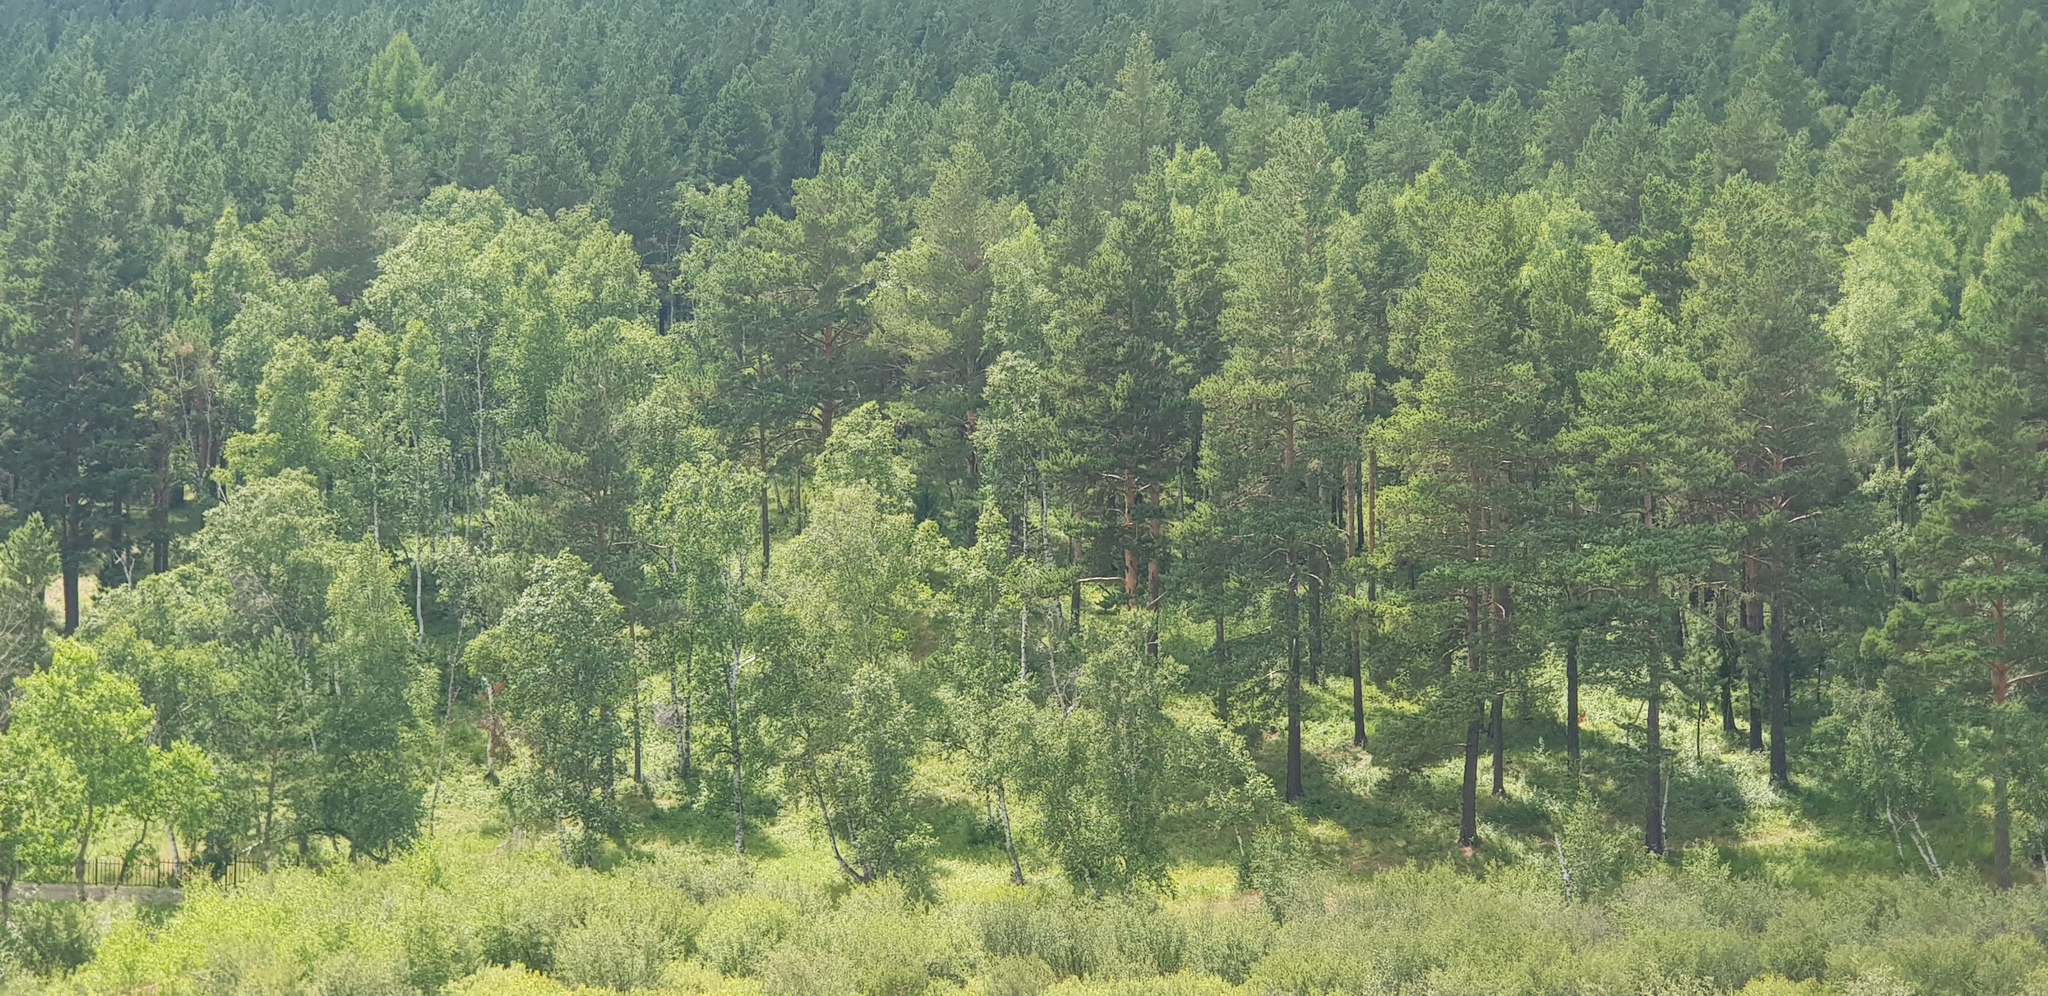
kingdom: Plantae
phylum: Tracheophyta
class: Pinopsida
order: Pinales
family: Pinaceae
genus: Pinus
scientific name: Pinus sylvestris
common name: Scots pine
